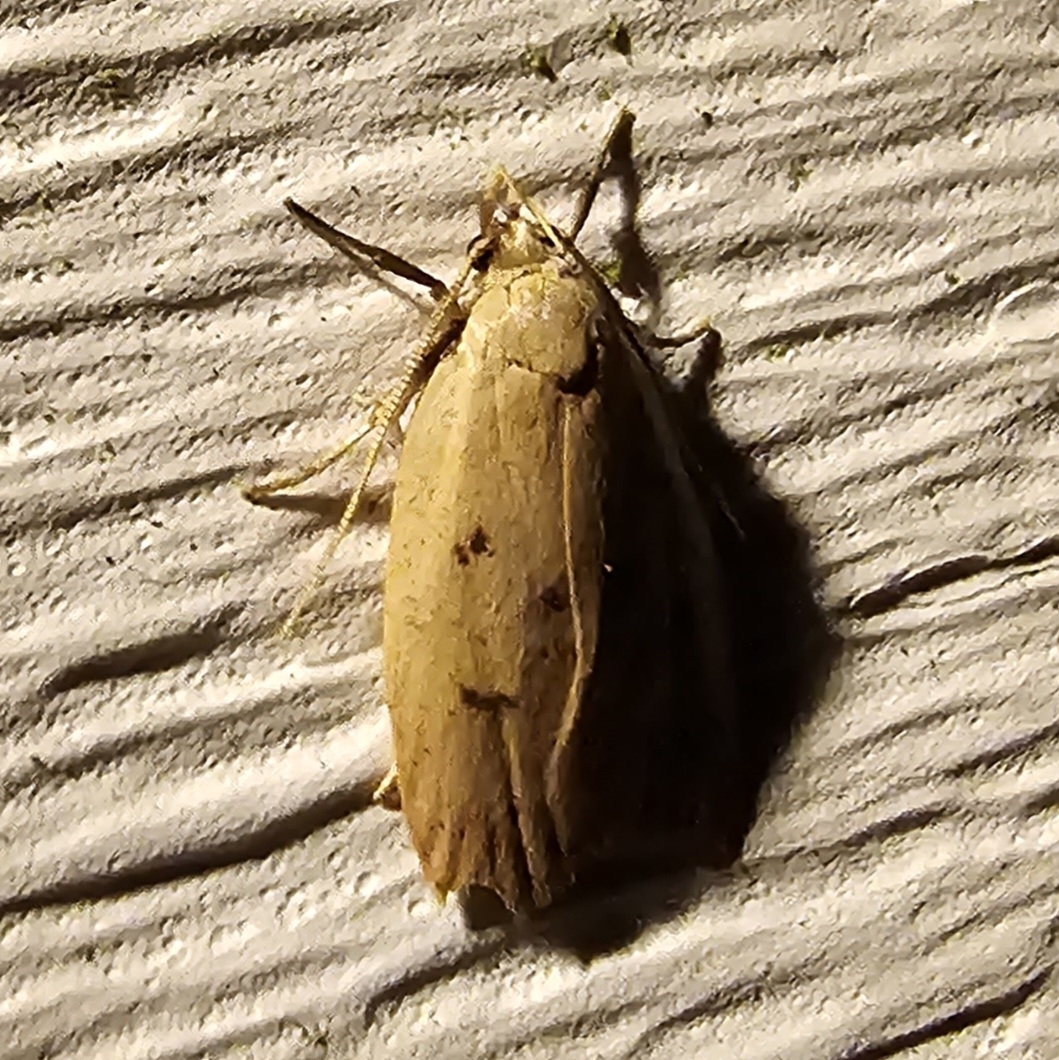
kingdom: Animalia
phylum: Arthropoda
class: Insecta
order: Lepidoptera
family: Peleopodidae
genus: Machimia
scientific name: Machimia tentoriferella
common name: Gold-striped leaftier moth
